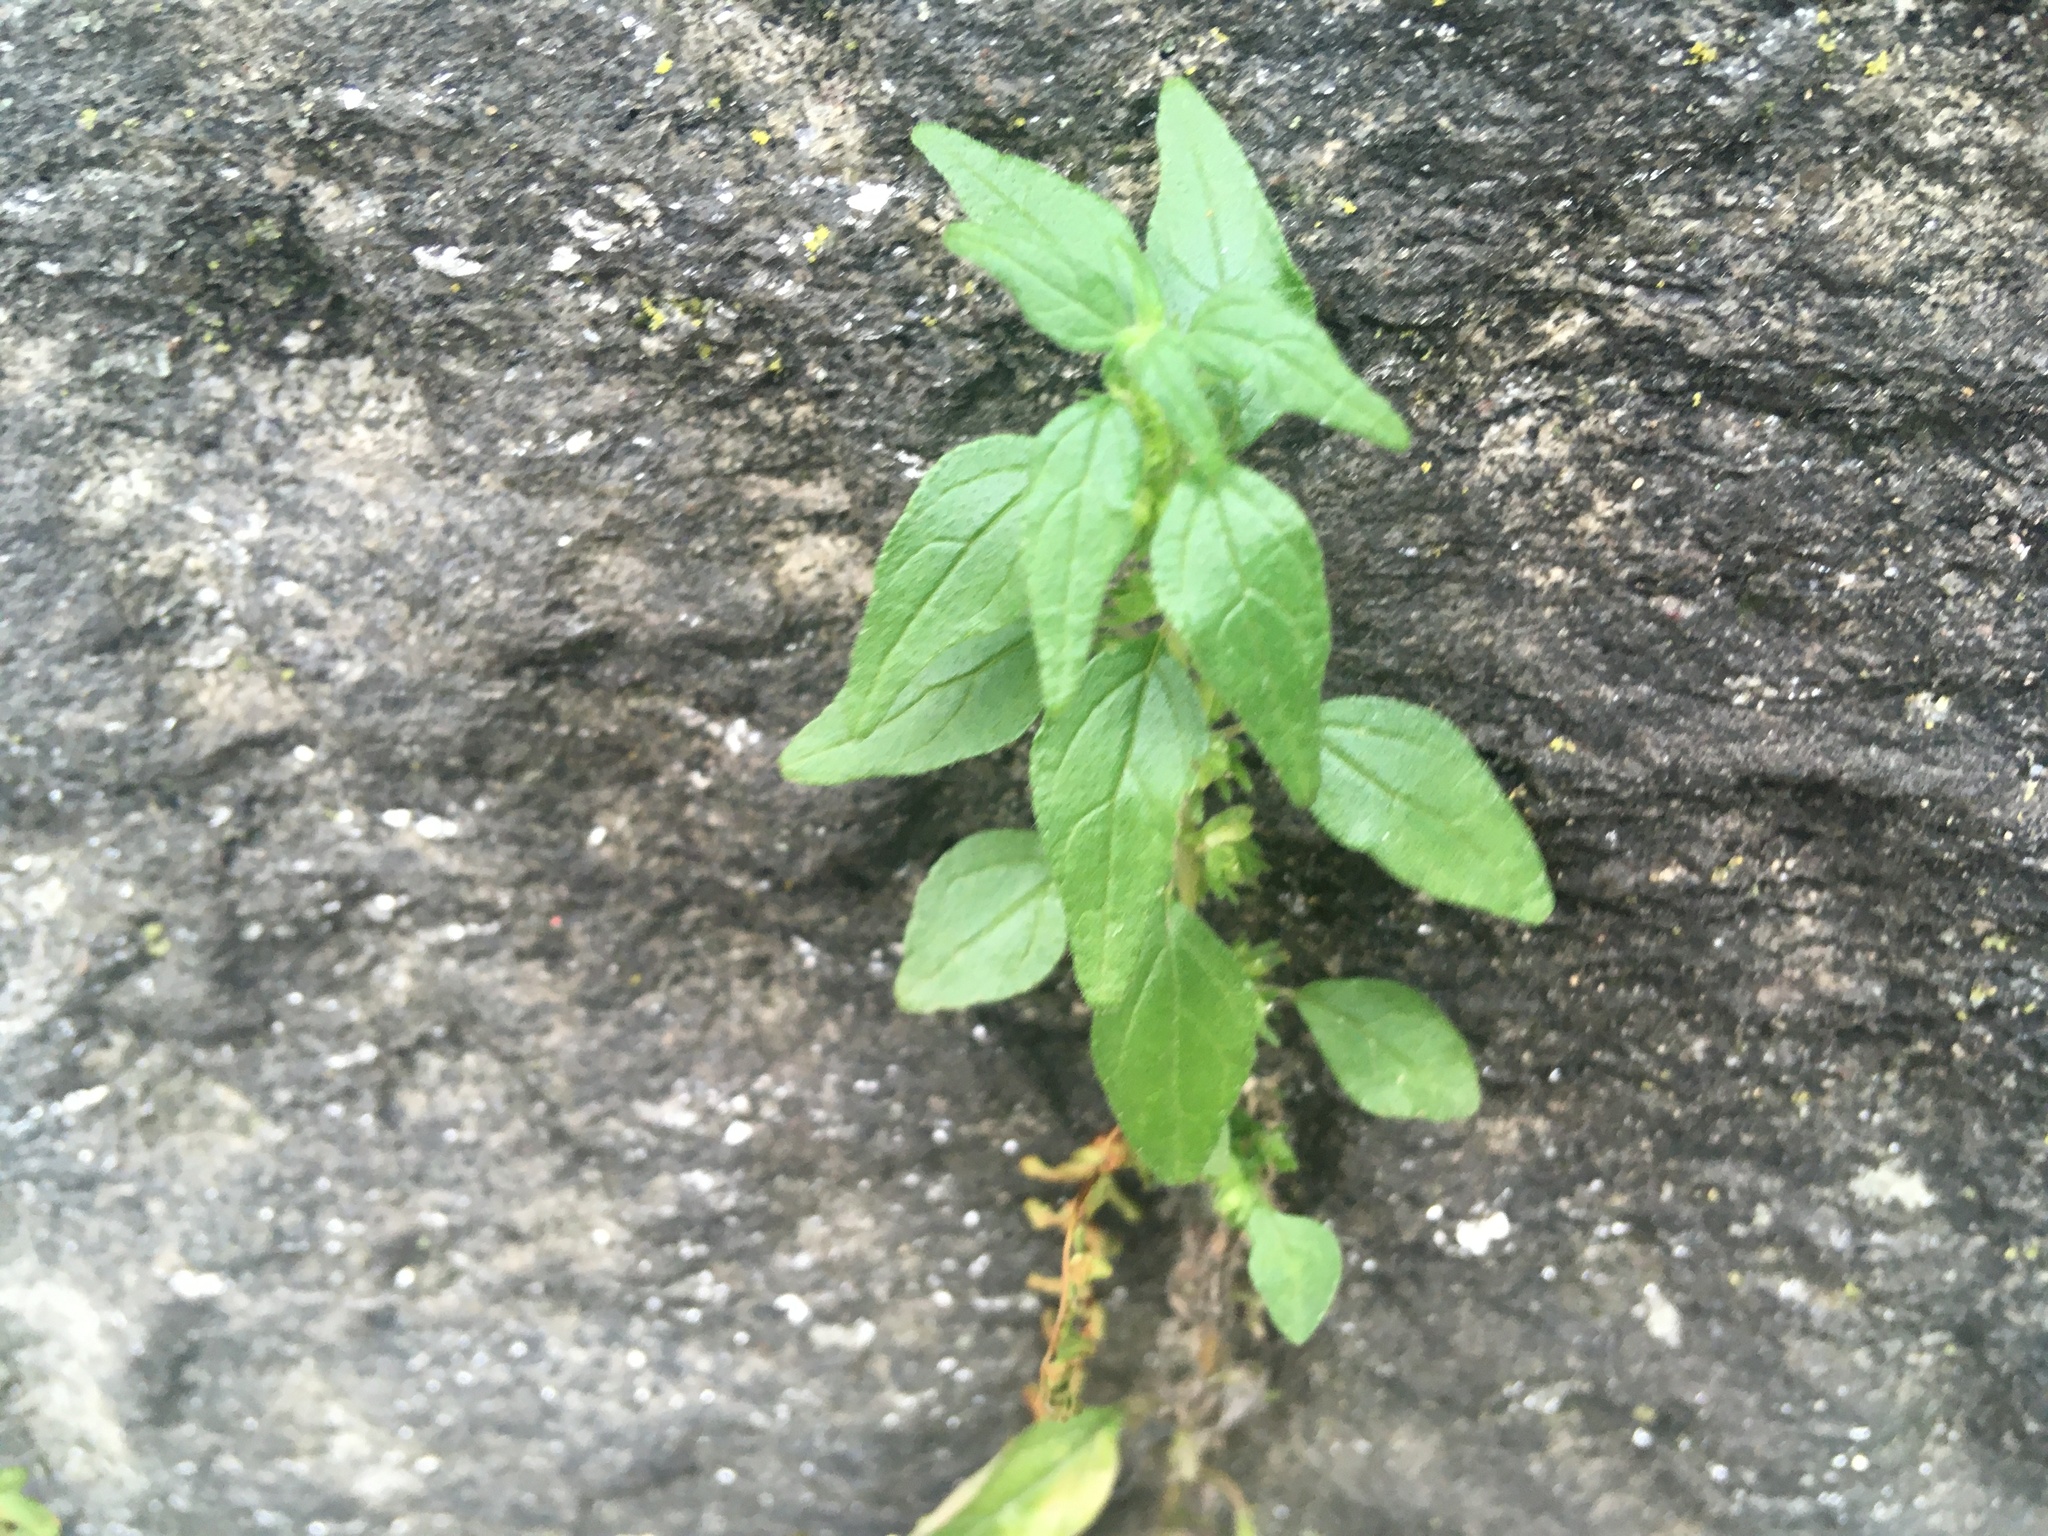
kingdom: Plantae
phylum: Tracheophyta
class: Magnoliopsida
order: Rosales
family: Urticaceae
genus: Parietaria
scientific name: Parietaria pensylvanica
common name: Pennsylvania pellitory
